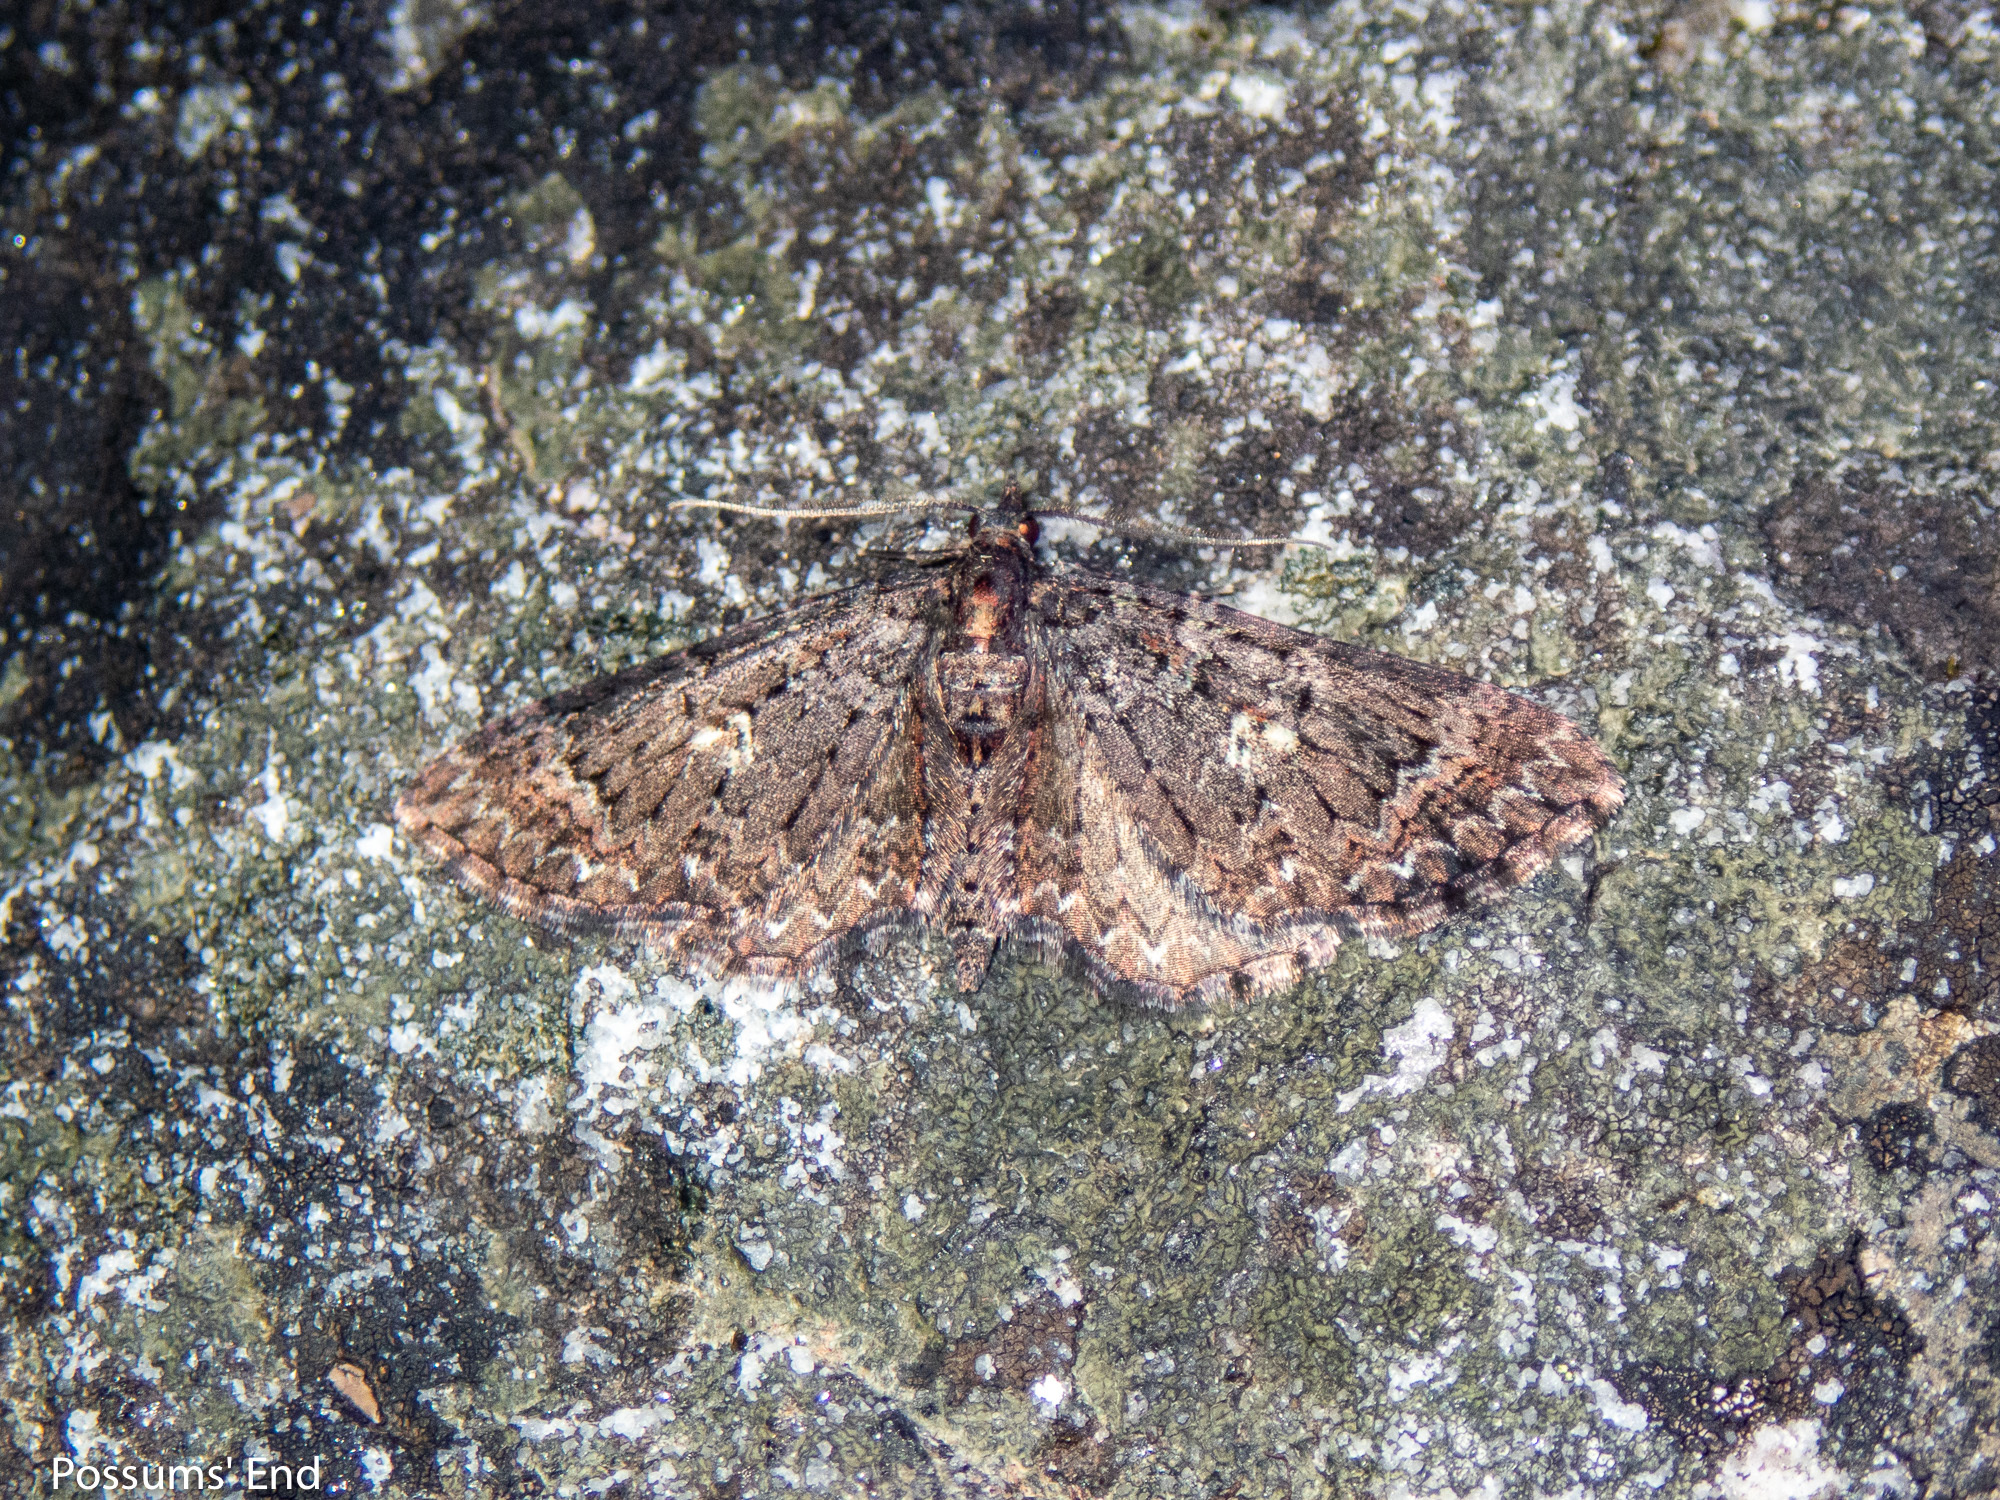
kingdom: Animalia
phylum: Arthropoda
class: Insecta
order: Lepidoptera
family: Geometridae
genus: Pasiphila
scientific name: Pasiphila rubella
